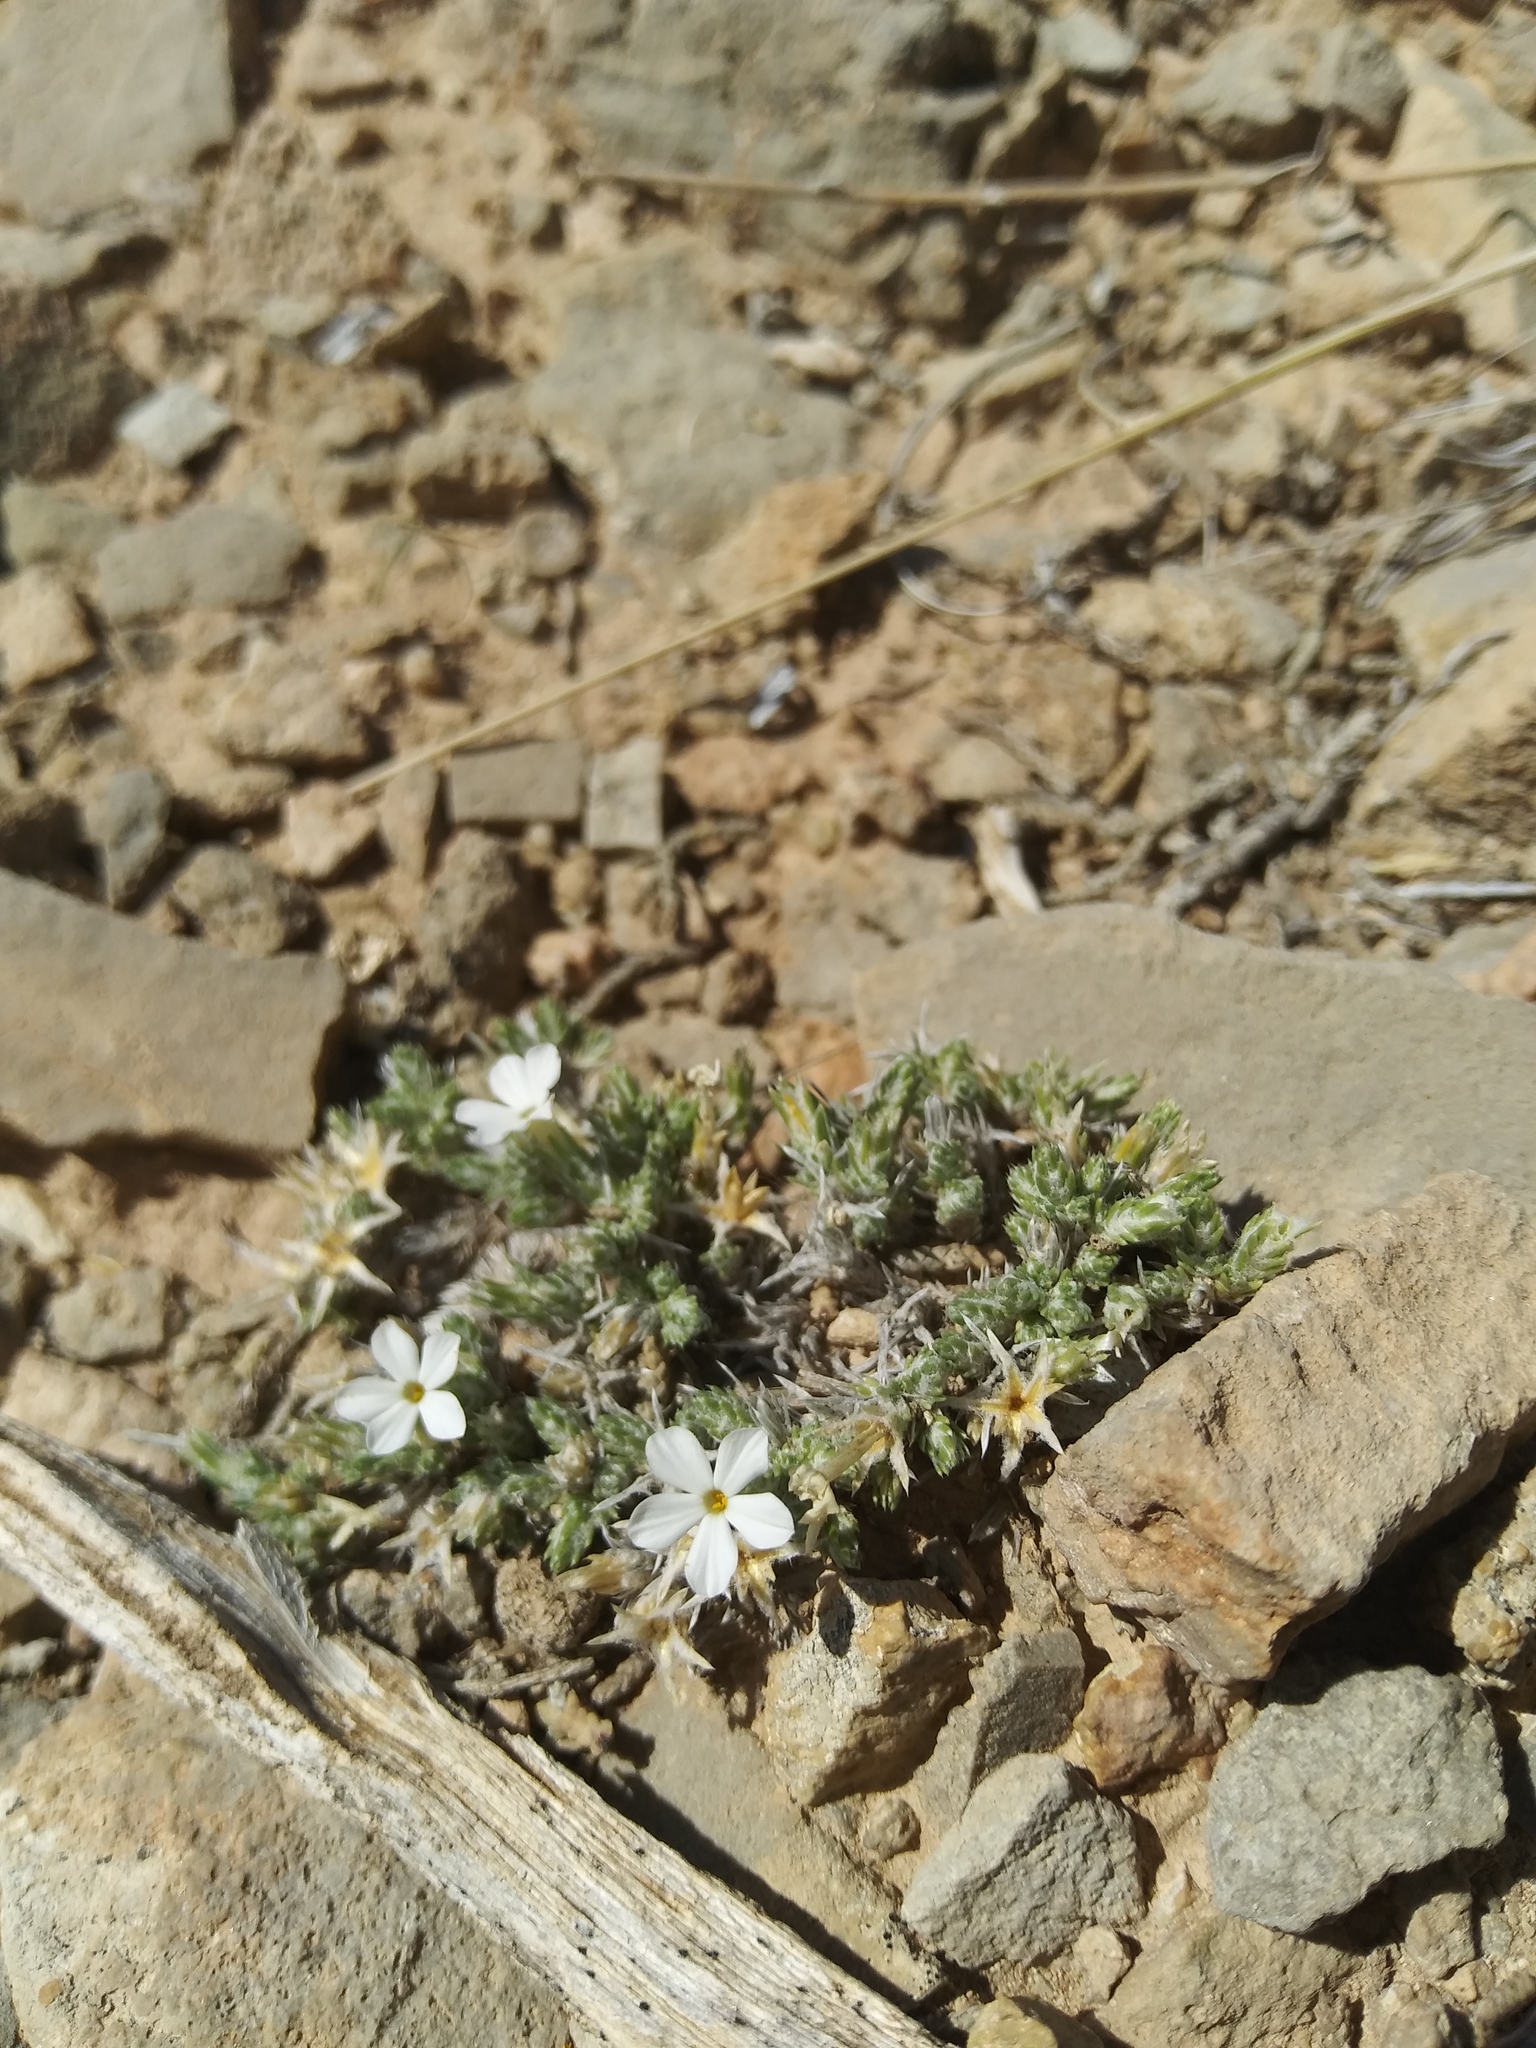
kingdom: Plantae
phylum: Tracheophyta
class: Magnoliopsida
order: Ericales
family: Polemoniaceae
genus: Phlox
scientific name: Phlox hoodii
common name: Moss phlox
